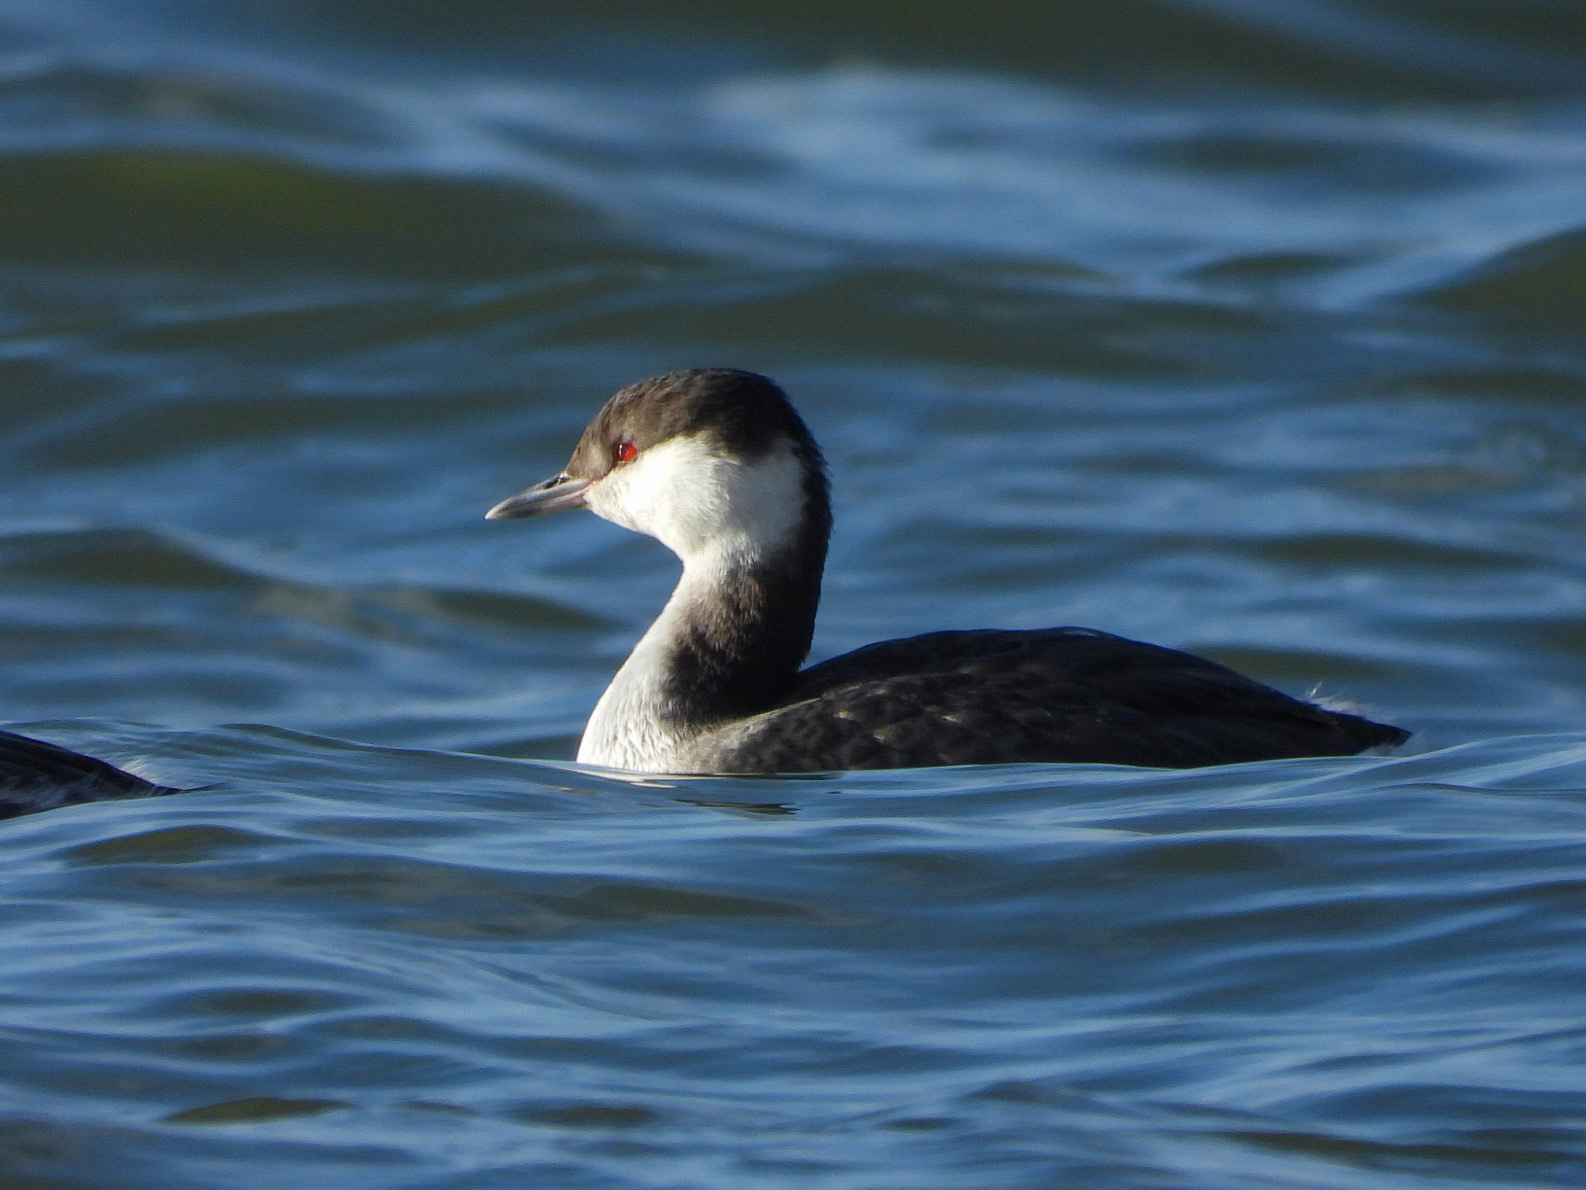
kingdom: Animalia
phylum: Chordata
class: Aves
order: Podicipediformes
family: Podicipedidae
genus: Podiceps
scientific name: Podiceps auritus
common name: Horned grebe
